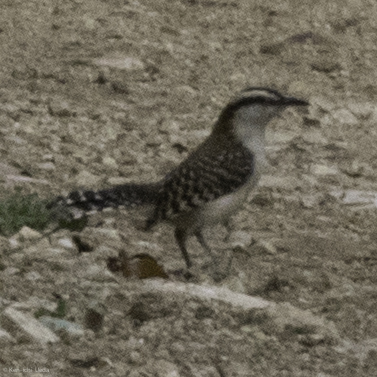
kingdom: Animalia
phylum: Chordata
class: Aves
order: Passeriformes
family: Troglodytidae
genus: Campylorhynchus
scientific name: Campylorhynchus rufinucha
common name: Rufous-naped wren
